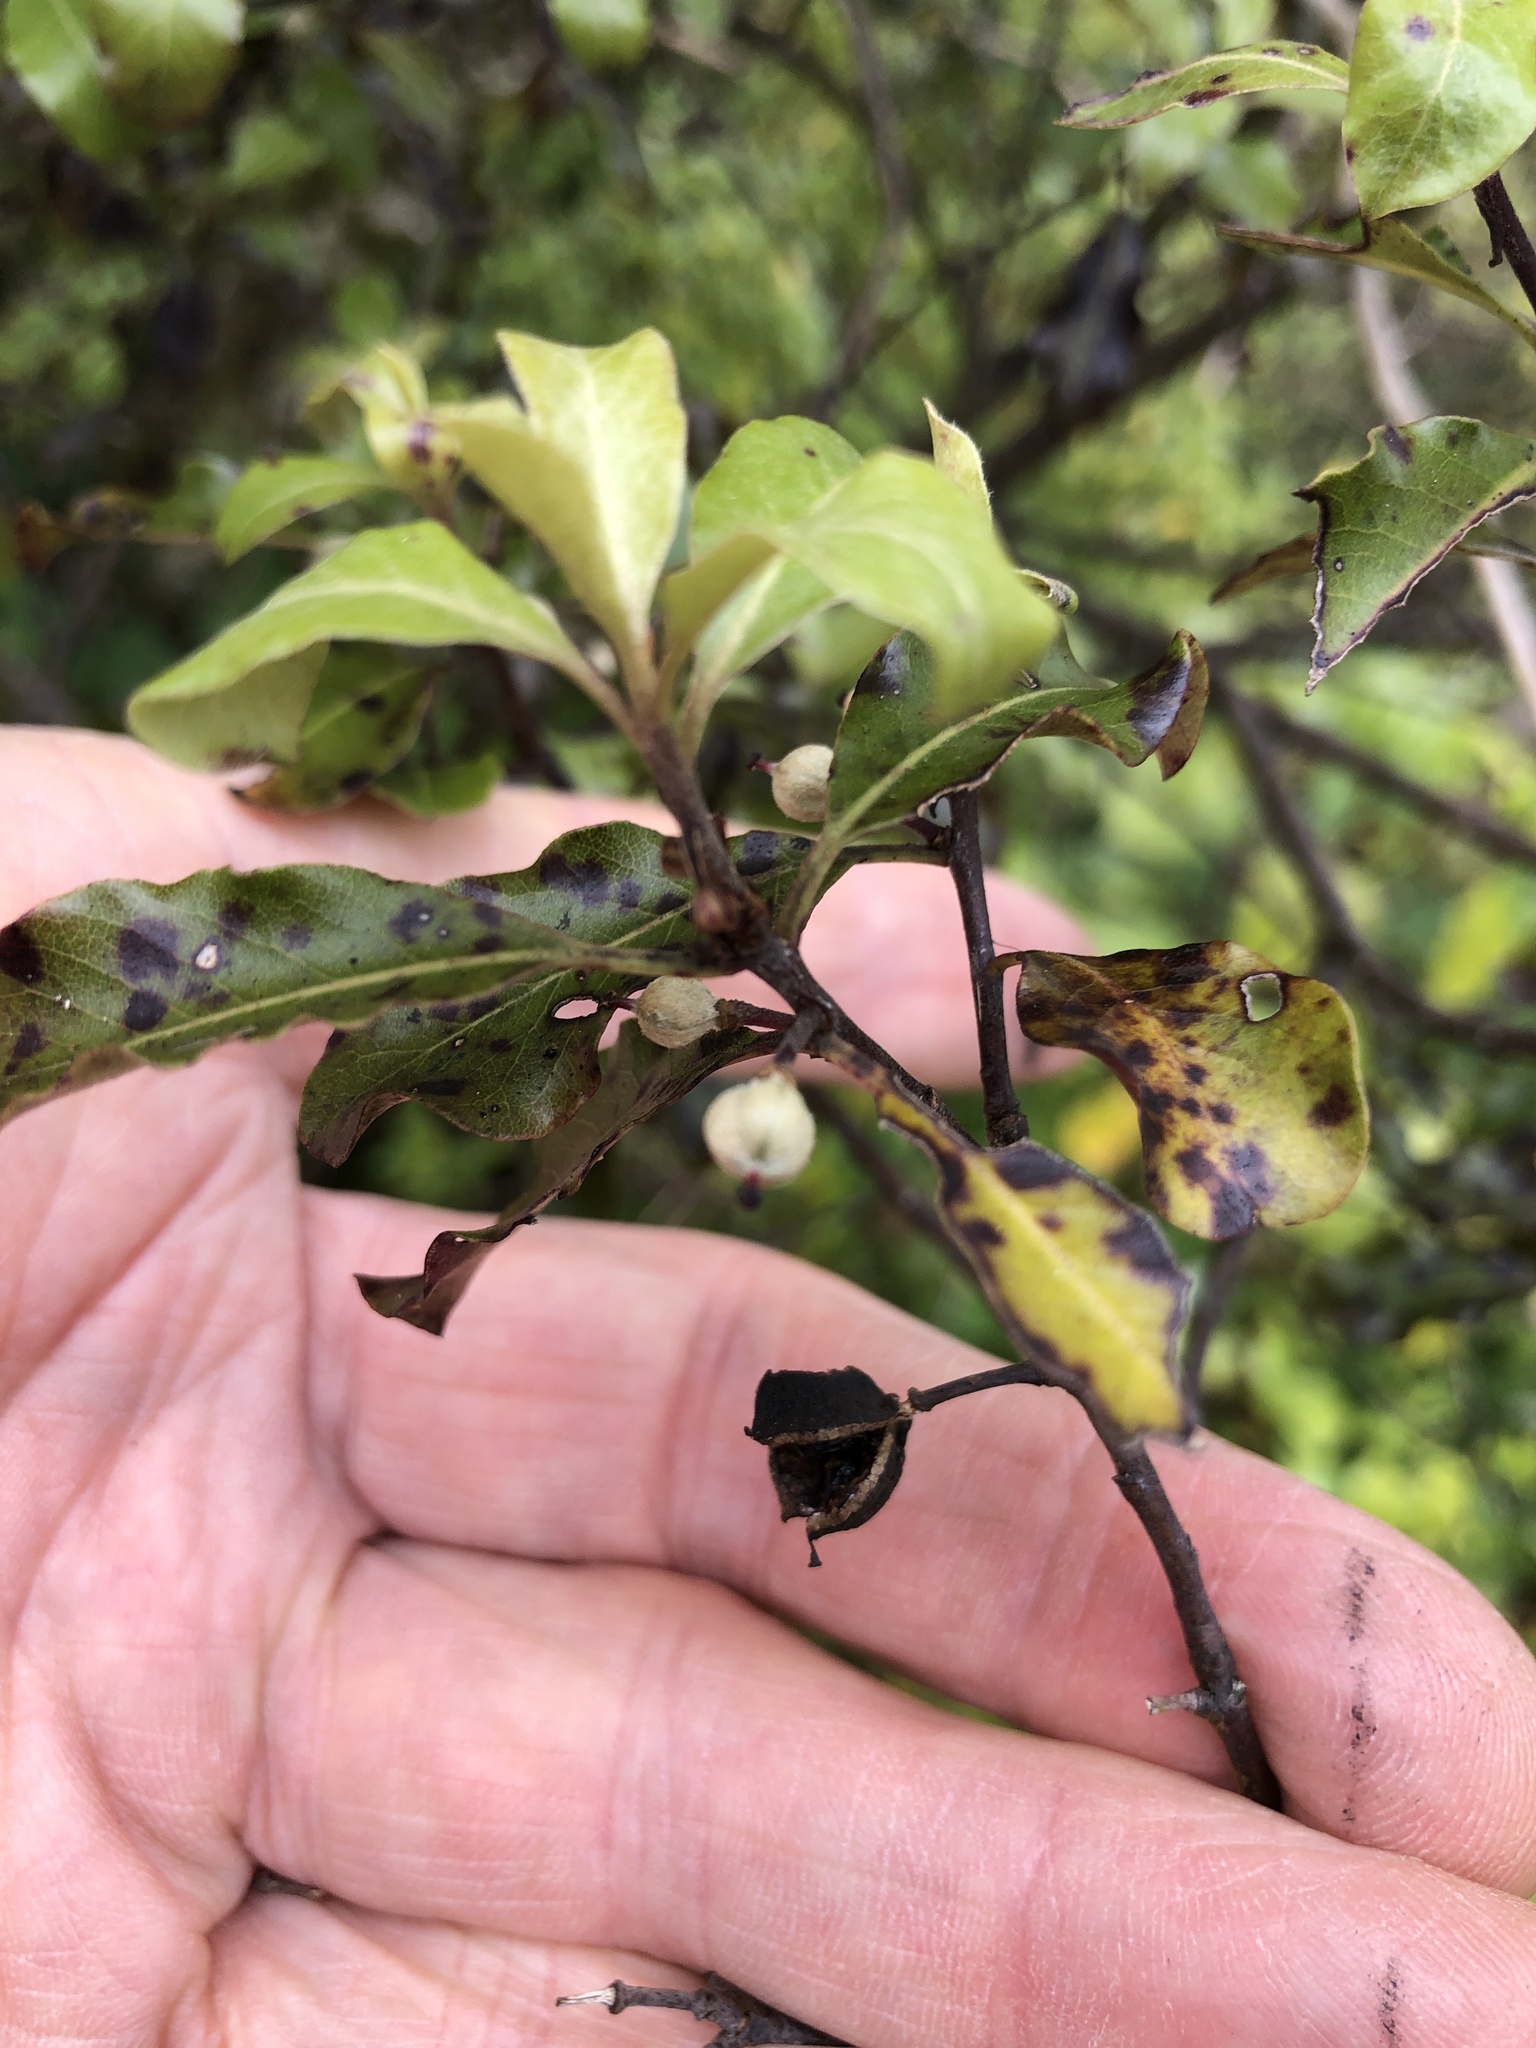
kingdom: Plantae
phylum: Tracheophyta
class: Magnoliopsida
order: Apiales
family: Pittosporaceae
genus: Pittosporum
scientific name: Pittosporum tenuifolium
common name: Kohuhu
